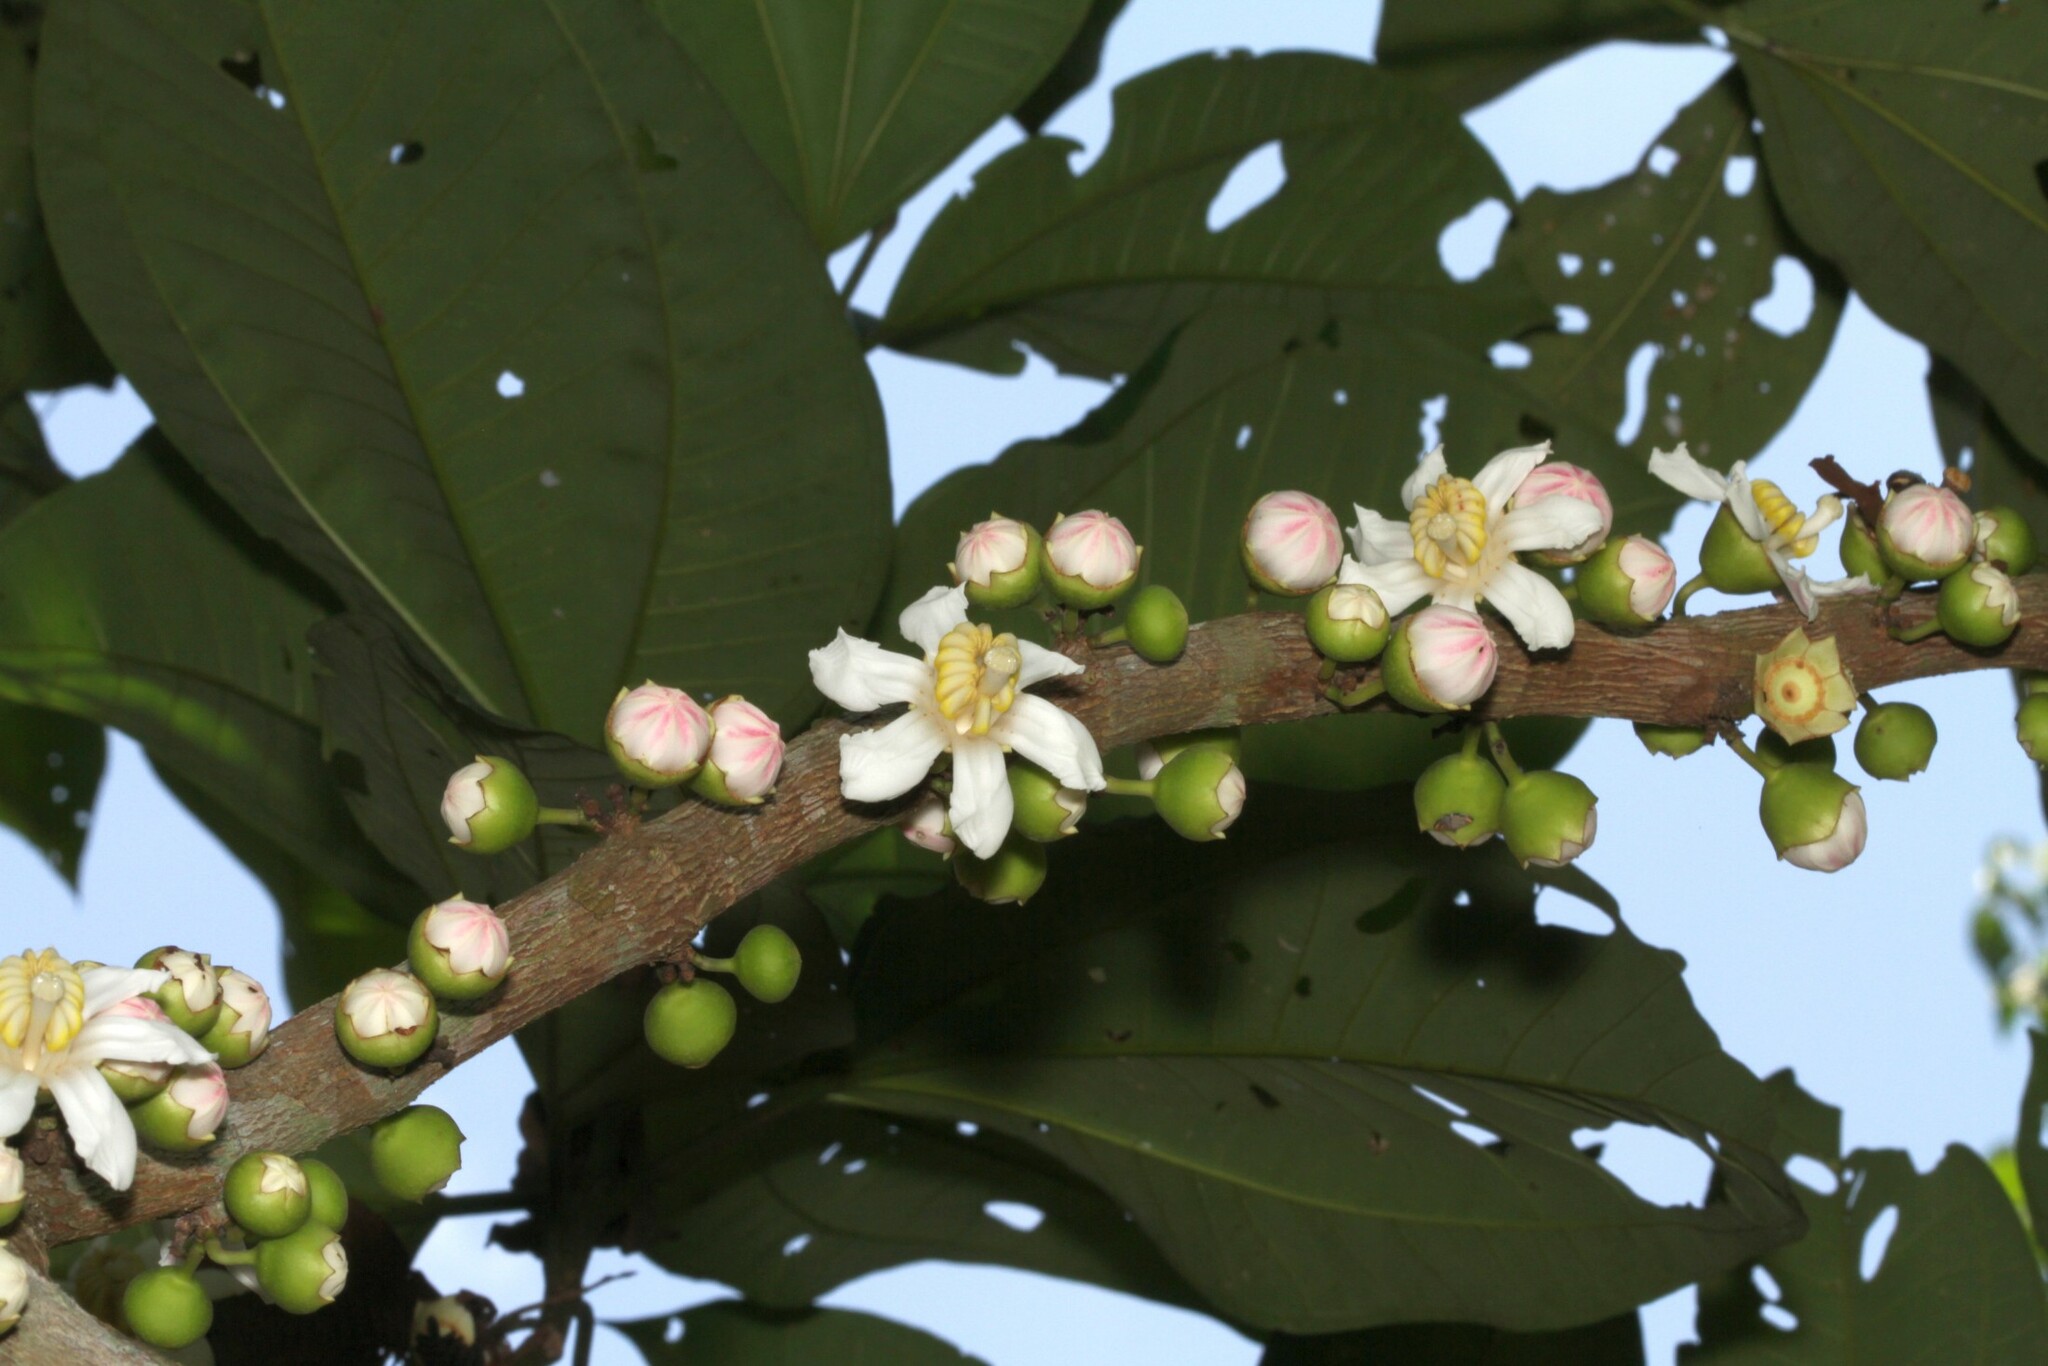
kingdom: Plantae
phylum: Tracheophyta
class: Magnoliopsida
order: Myrtales
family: Melastomataceae
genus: Bellucia
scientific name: Bellucia pentamera
